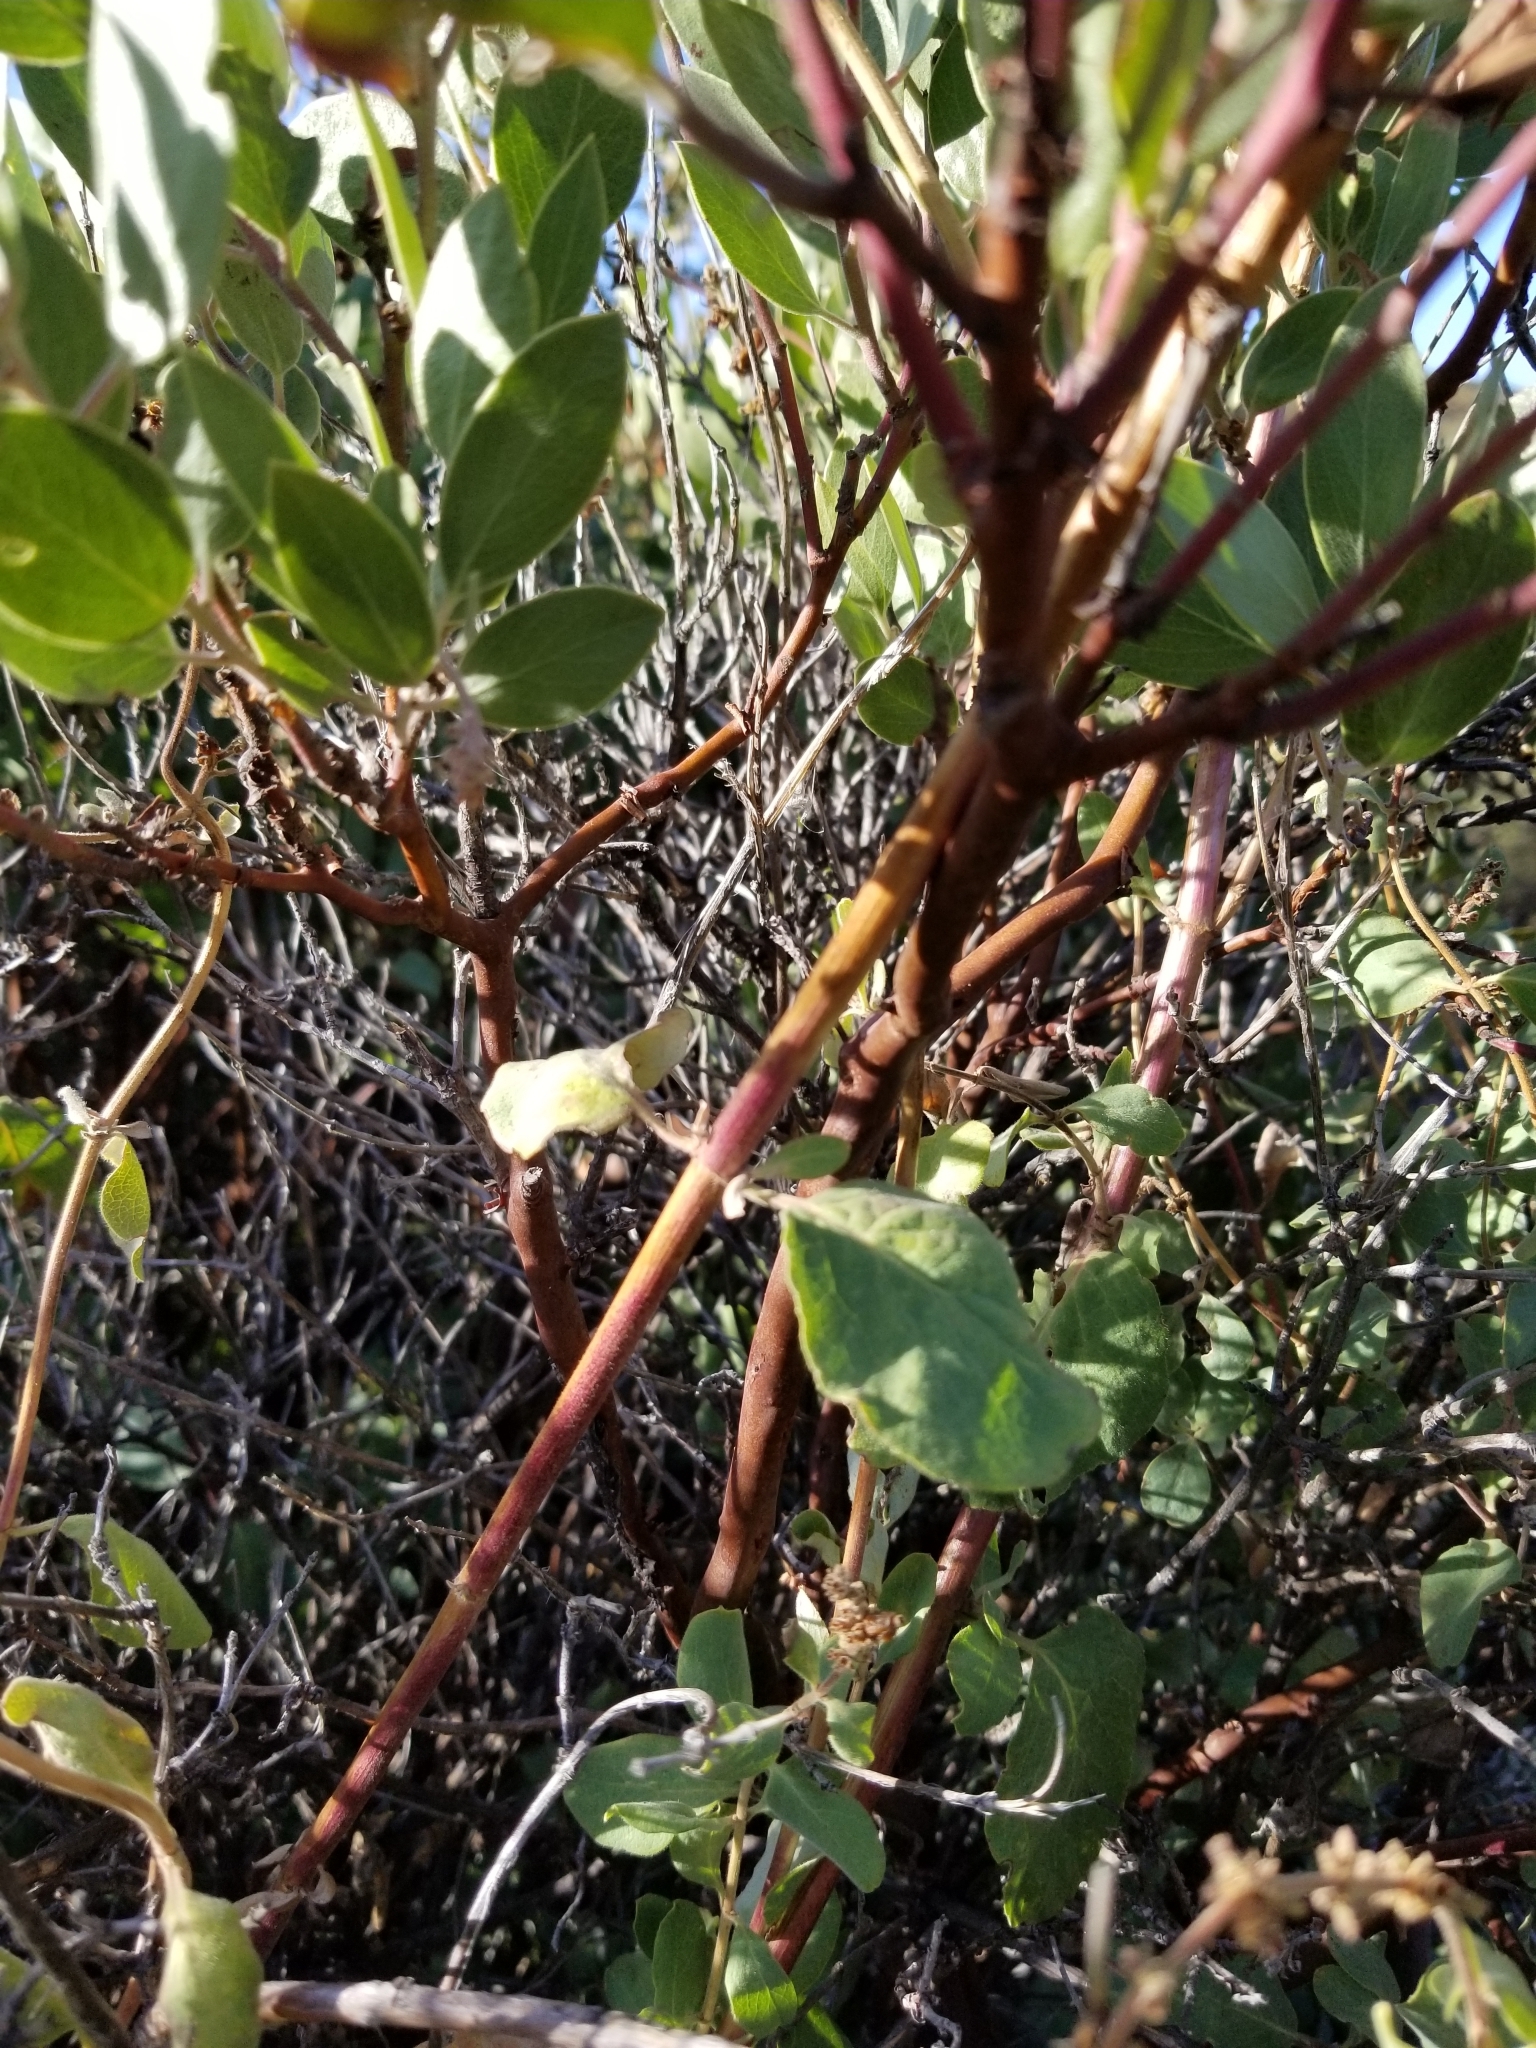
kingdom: Plantae
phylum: Tracheophyta
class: Magnoliopsida
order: Ericales
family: Ericaceae
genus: Arctostaphylos
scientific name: Arctostaphylos pungens
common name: Mexican manzanita
